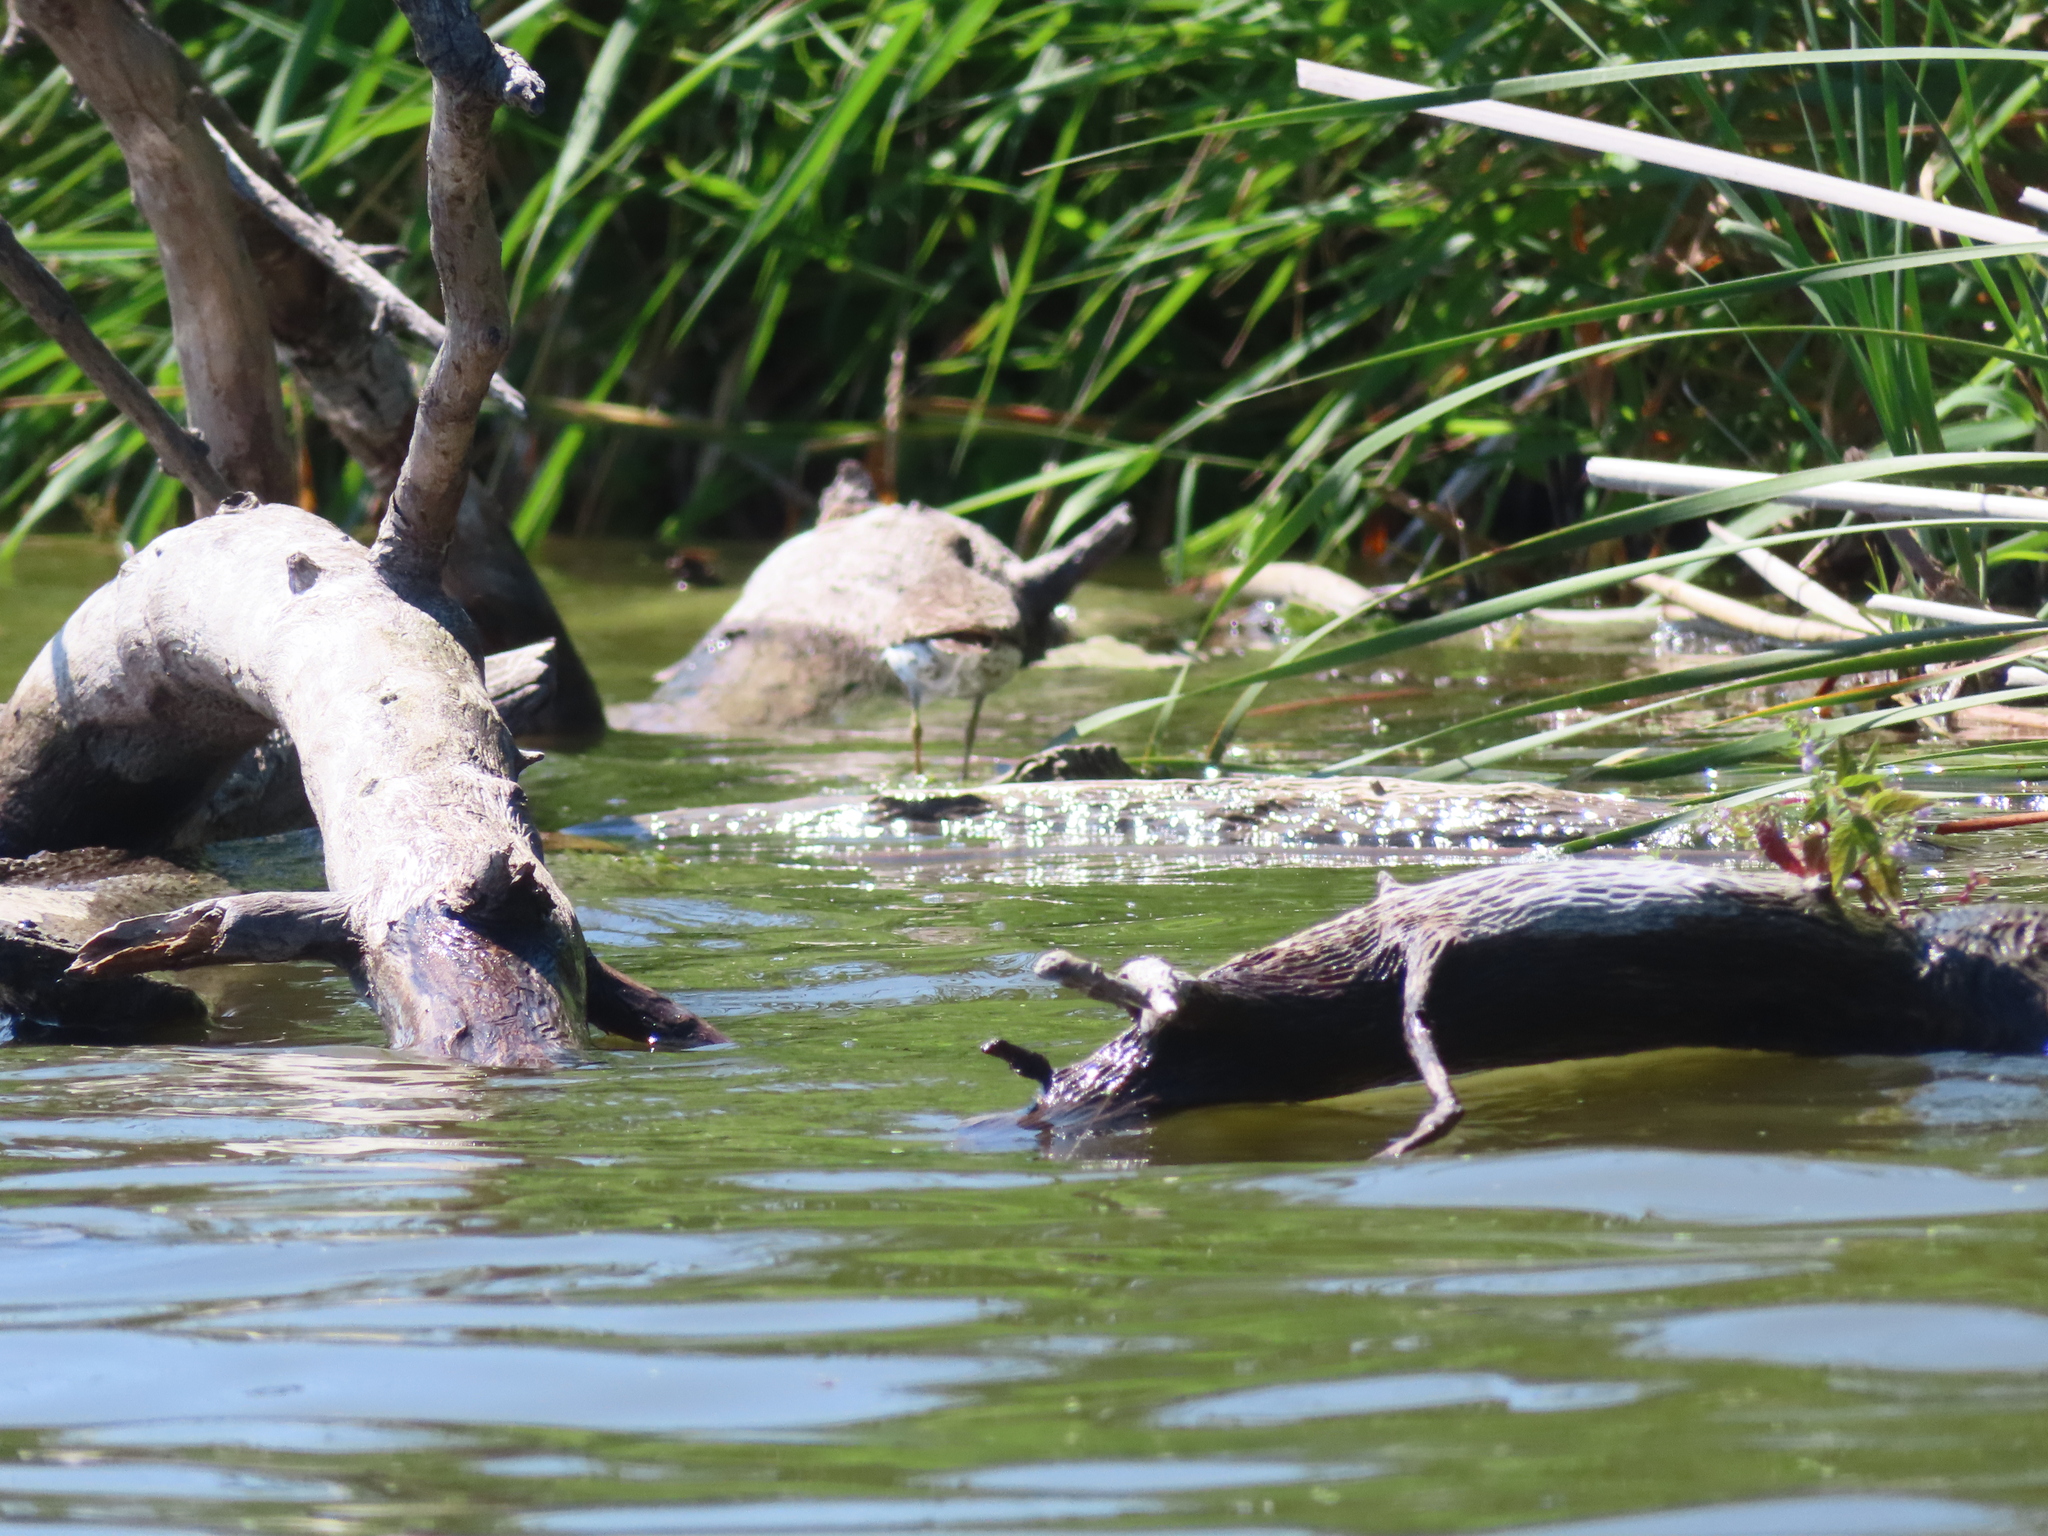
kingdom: Animalia
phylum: Chordata
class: Aves
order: Charadriiformes
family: Scolopacidae
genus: Actitis
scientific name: Actitis macularius
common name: Spotted sandpiper
